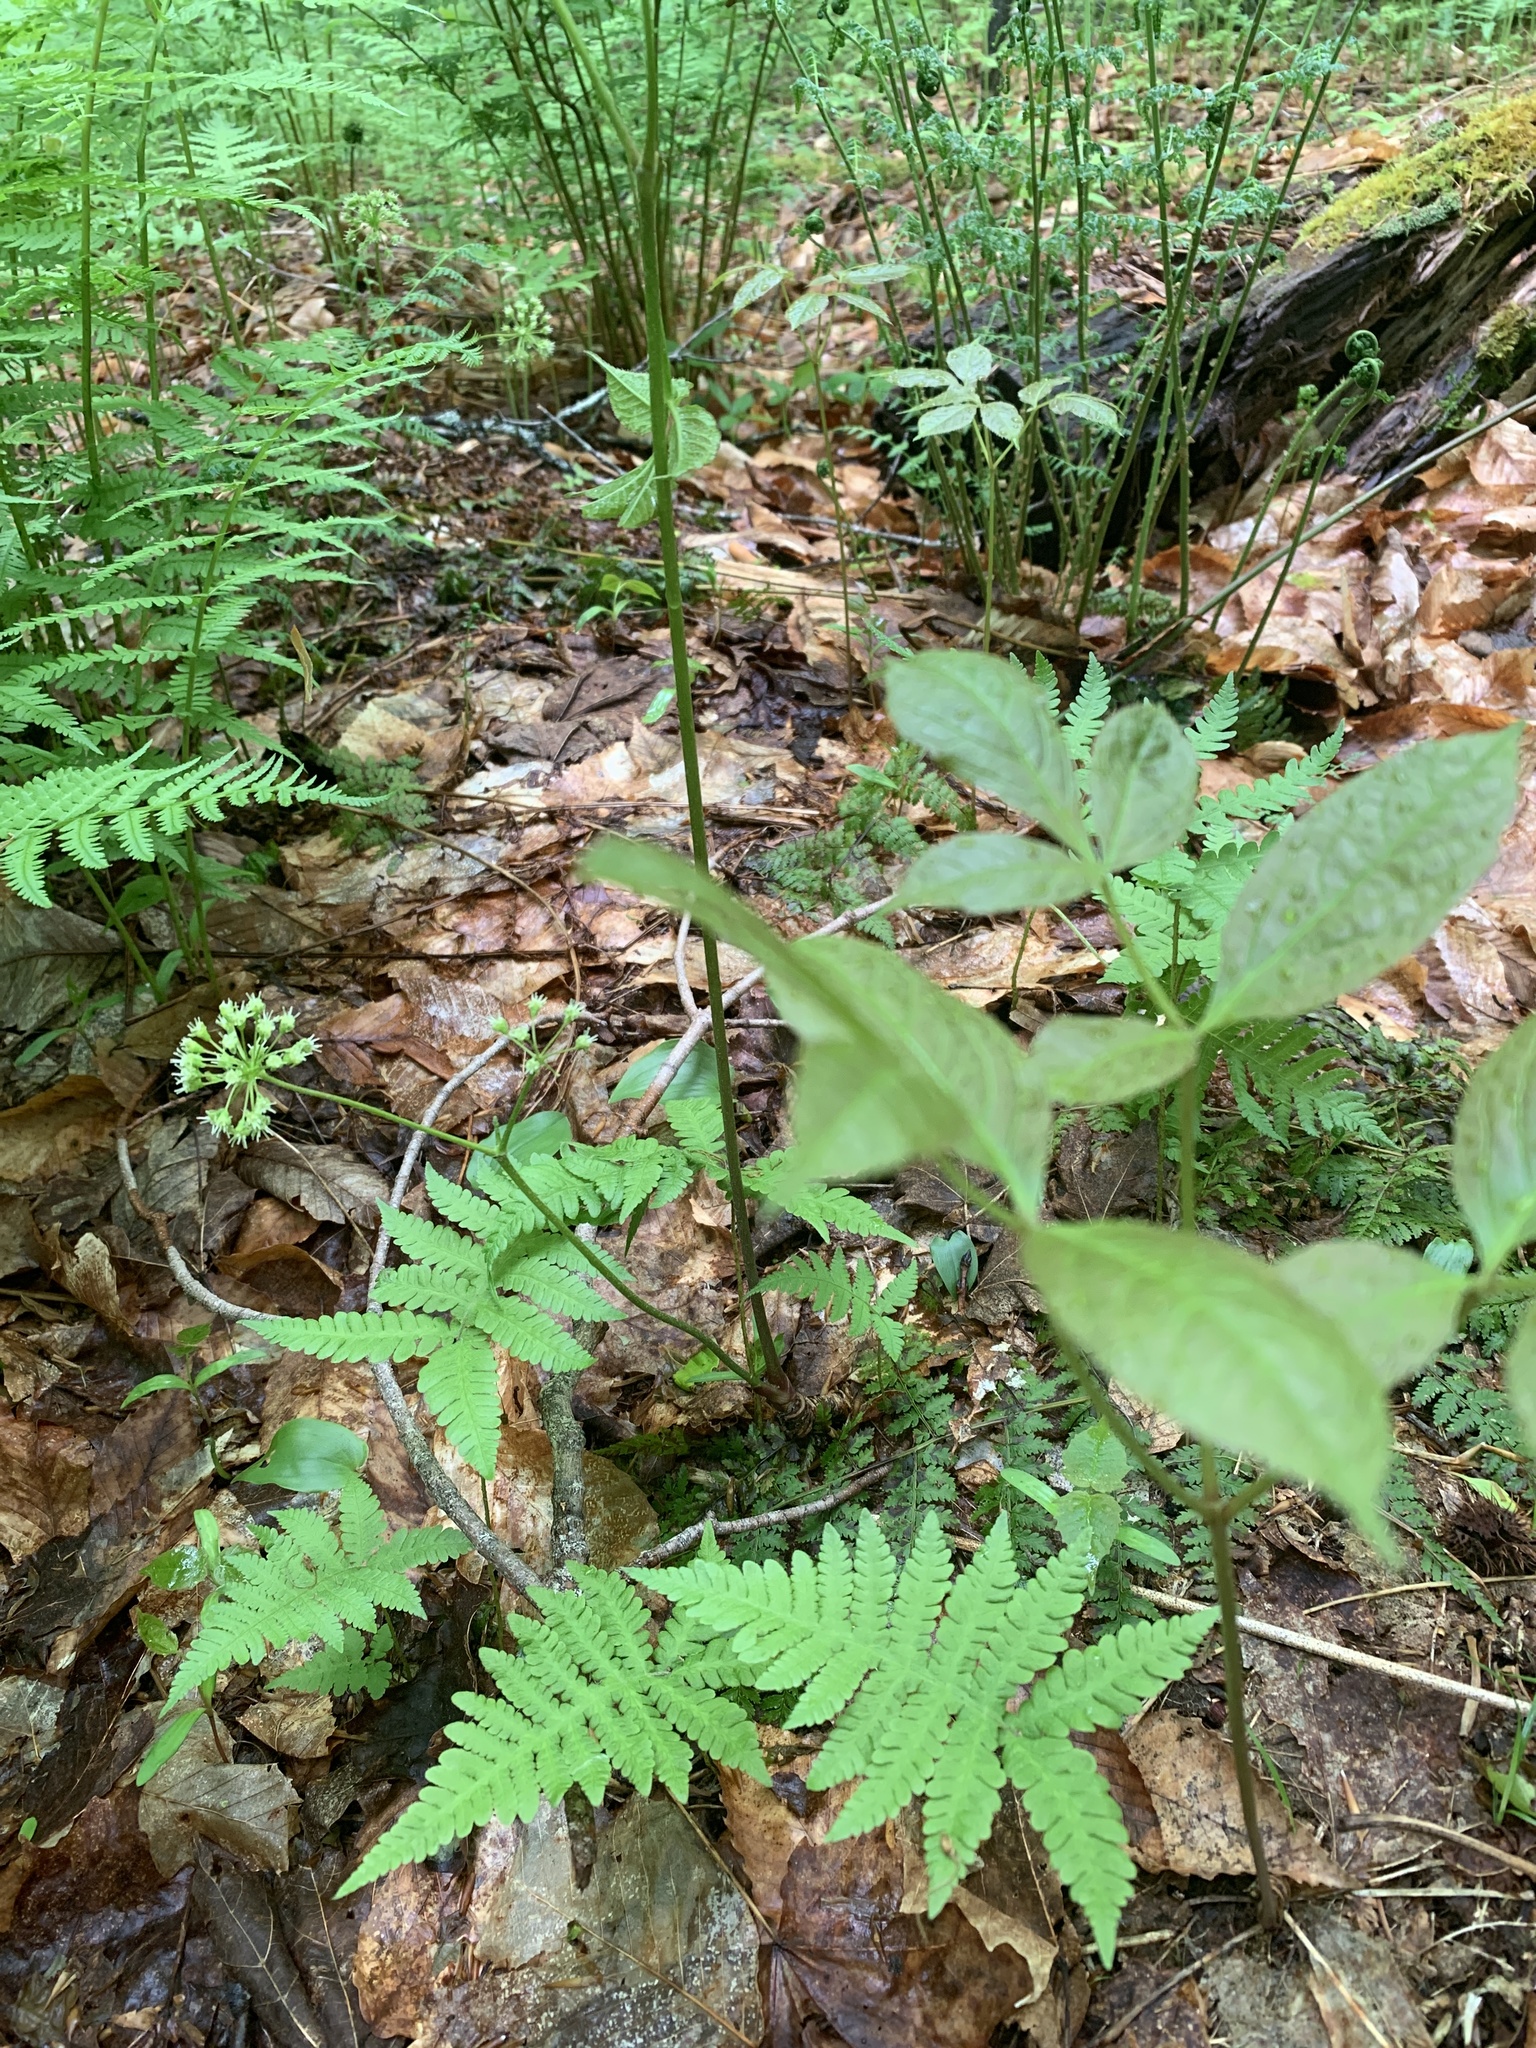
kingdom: Plantae
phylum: Tracheophyta
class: Magnoliopsida
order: Apiales
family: Araliaceae
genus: Aralia
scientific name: Aralia nudicaulis
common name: Wild sarsaparilla
